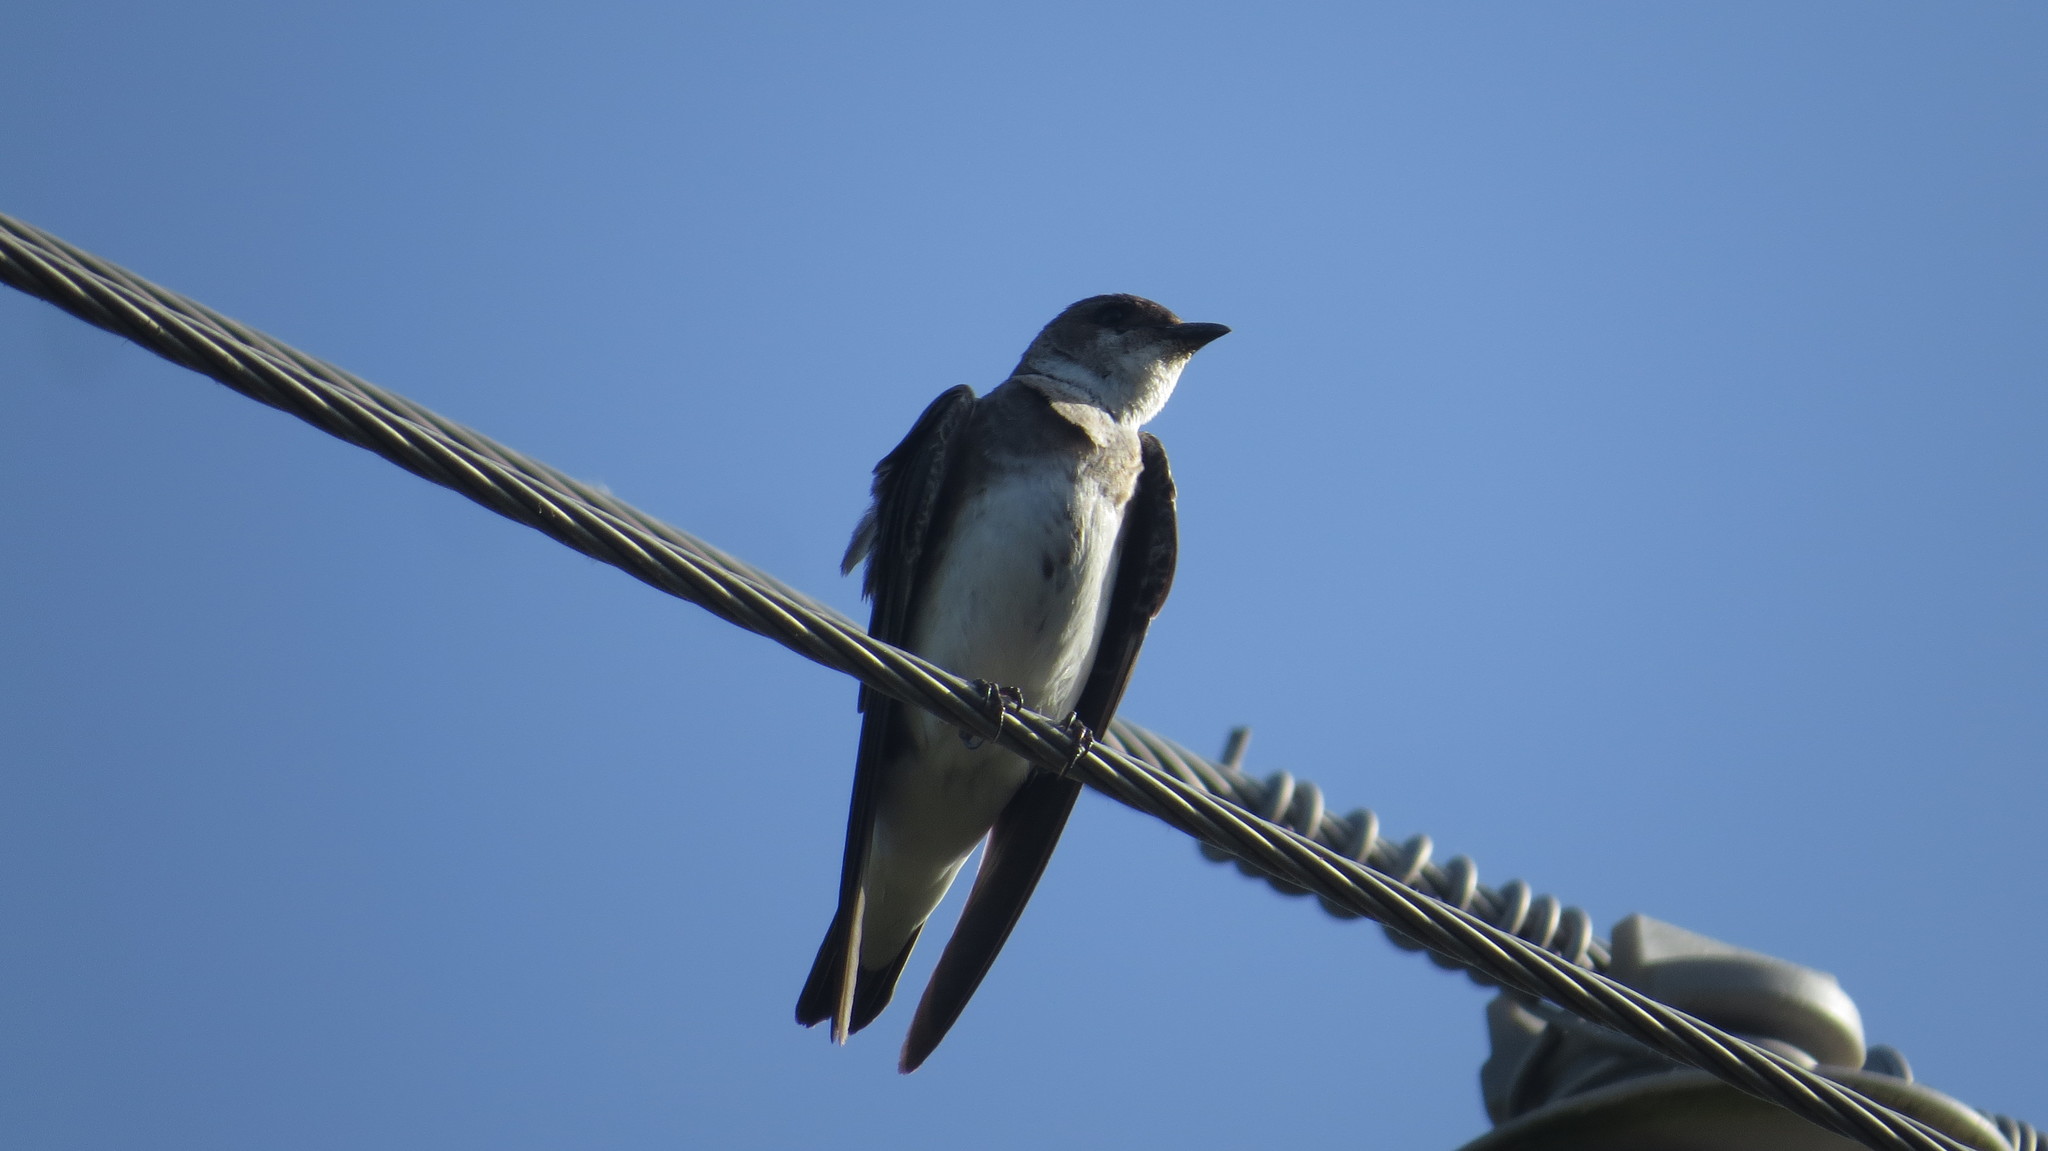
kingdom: Animalia
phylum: Chordata
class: Aves
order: Passeriformes
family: Hirundinidae
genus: Progne
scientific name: Progne tapera
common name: Brown-chested martin
